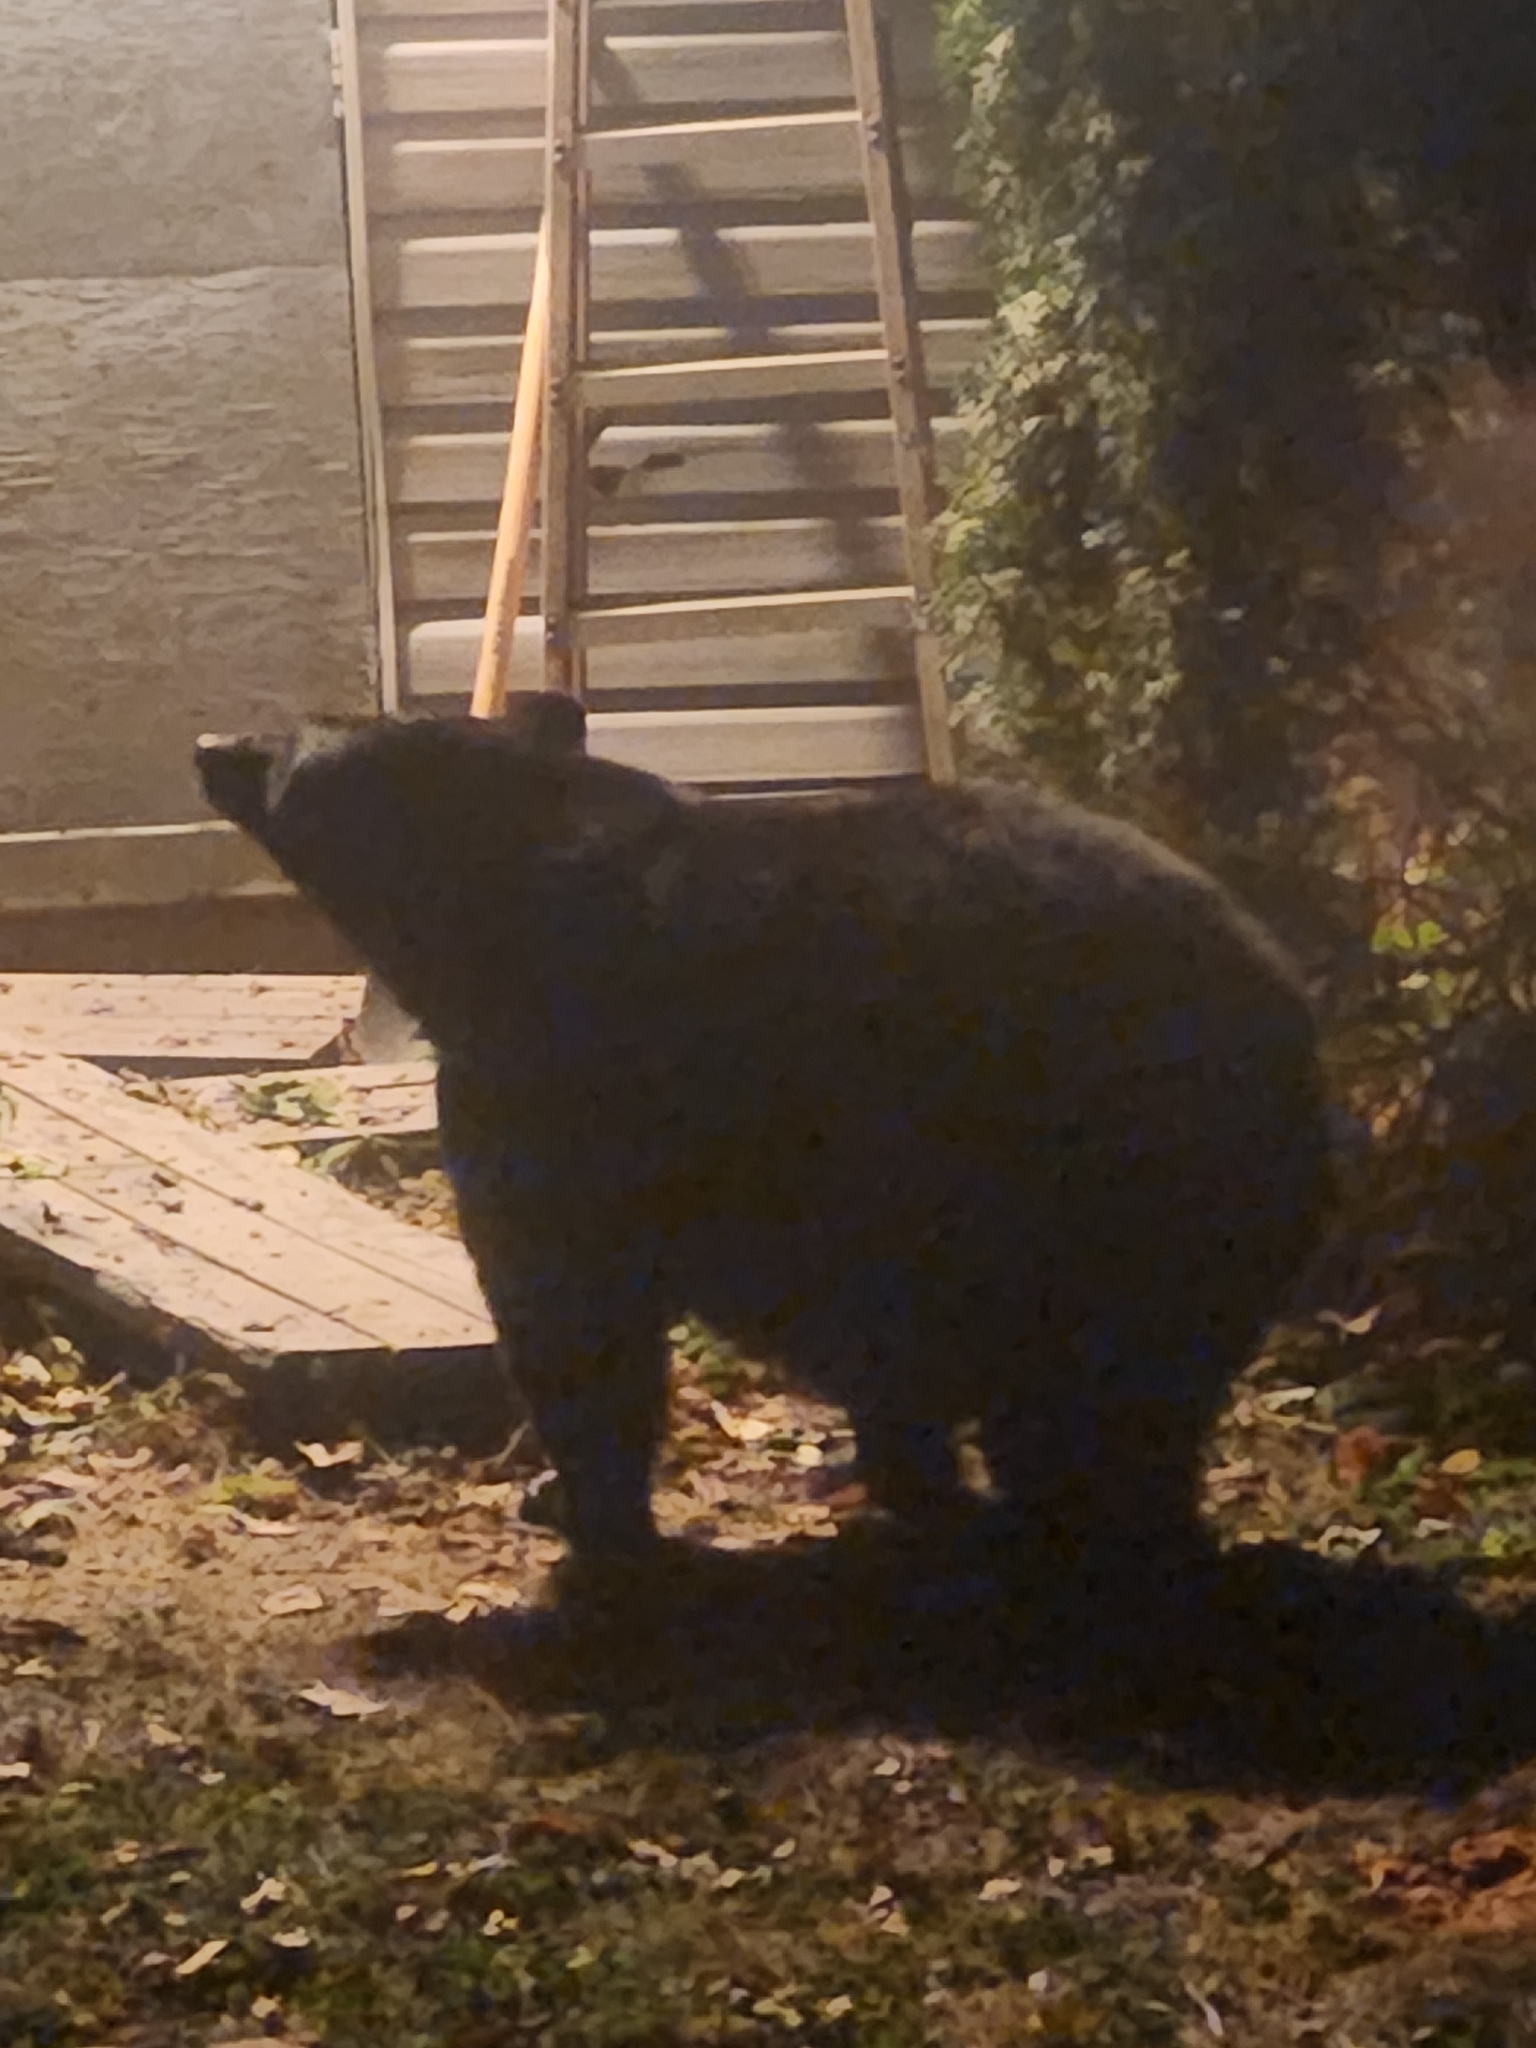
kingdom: Animalia
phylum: Chordata
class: Mammalia
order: Carnivora
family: Ursidae
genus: Ursus
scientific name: Ursus americanus
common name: American black bear
